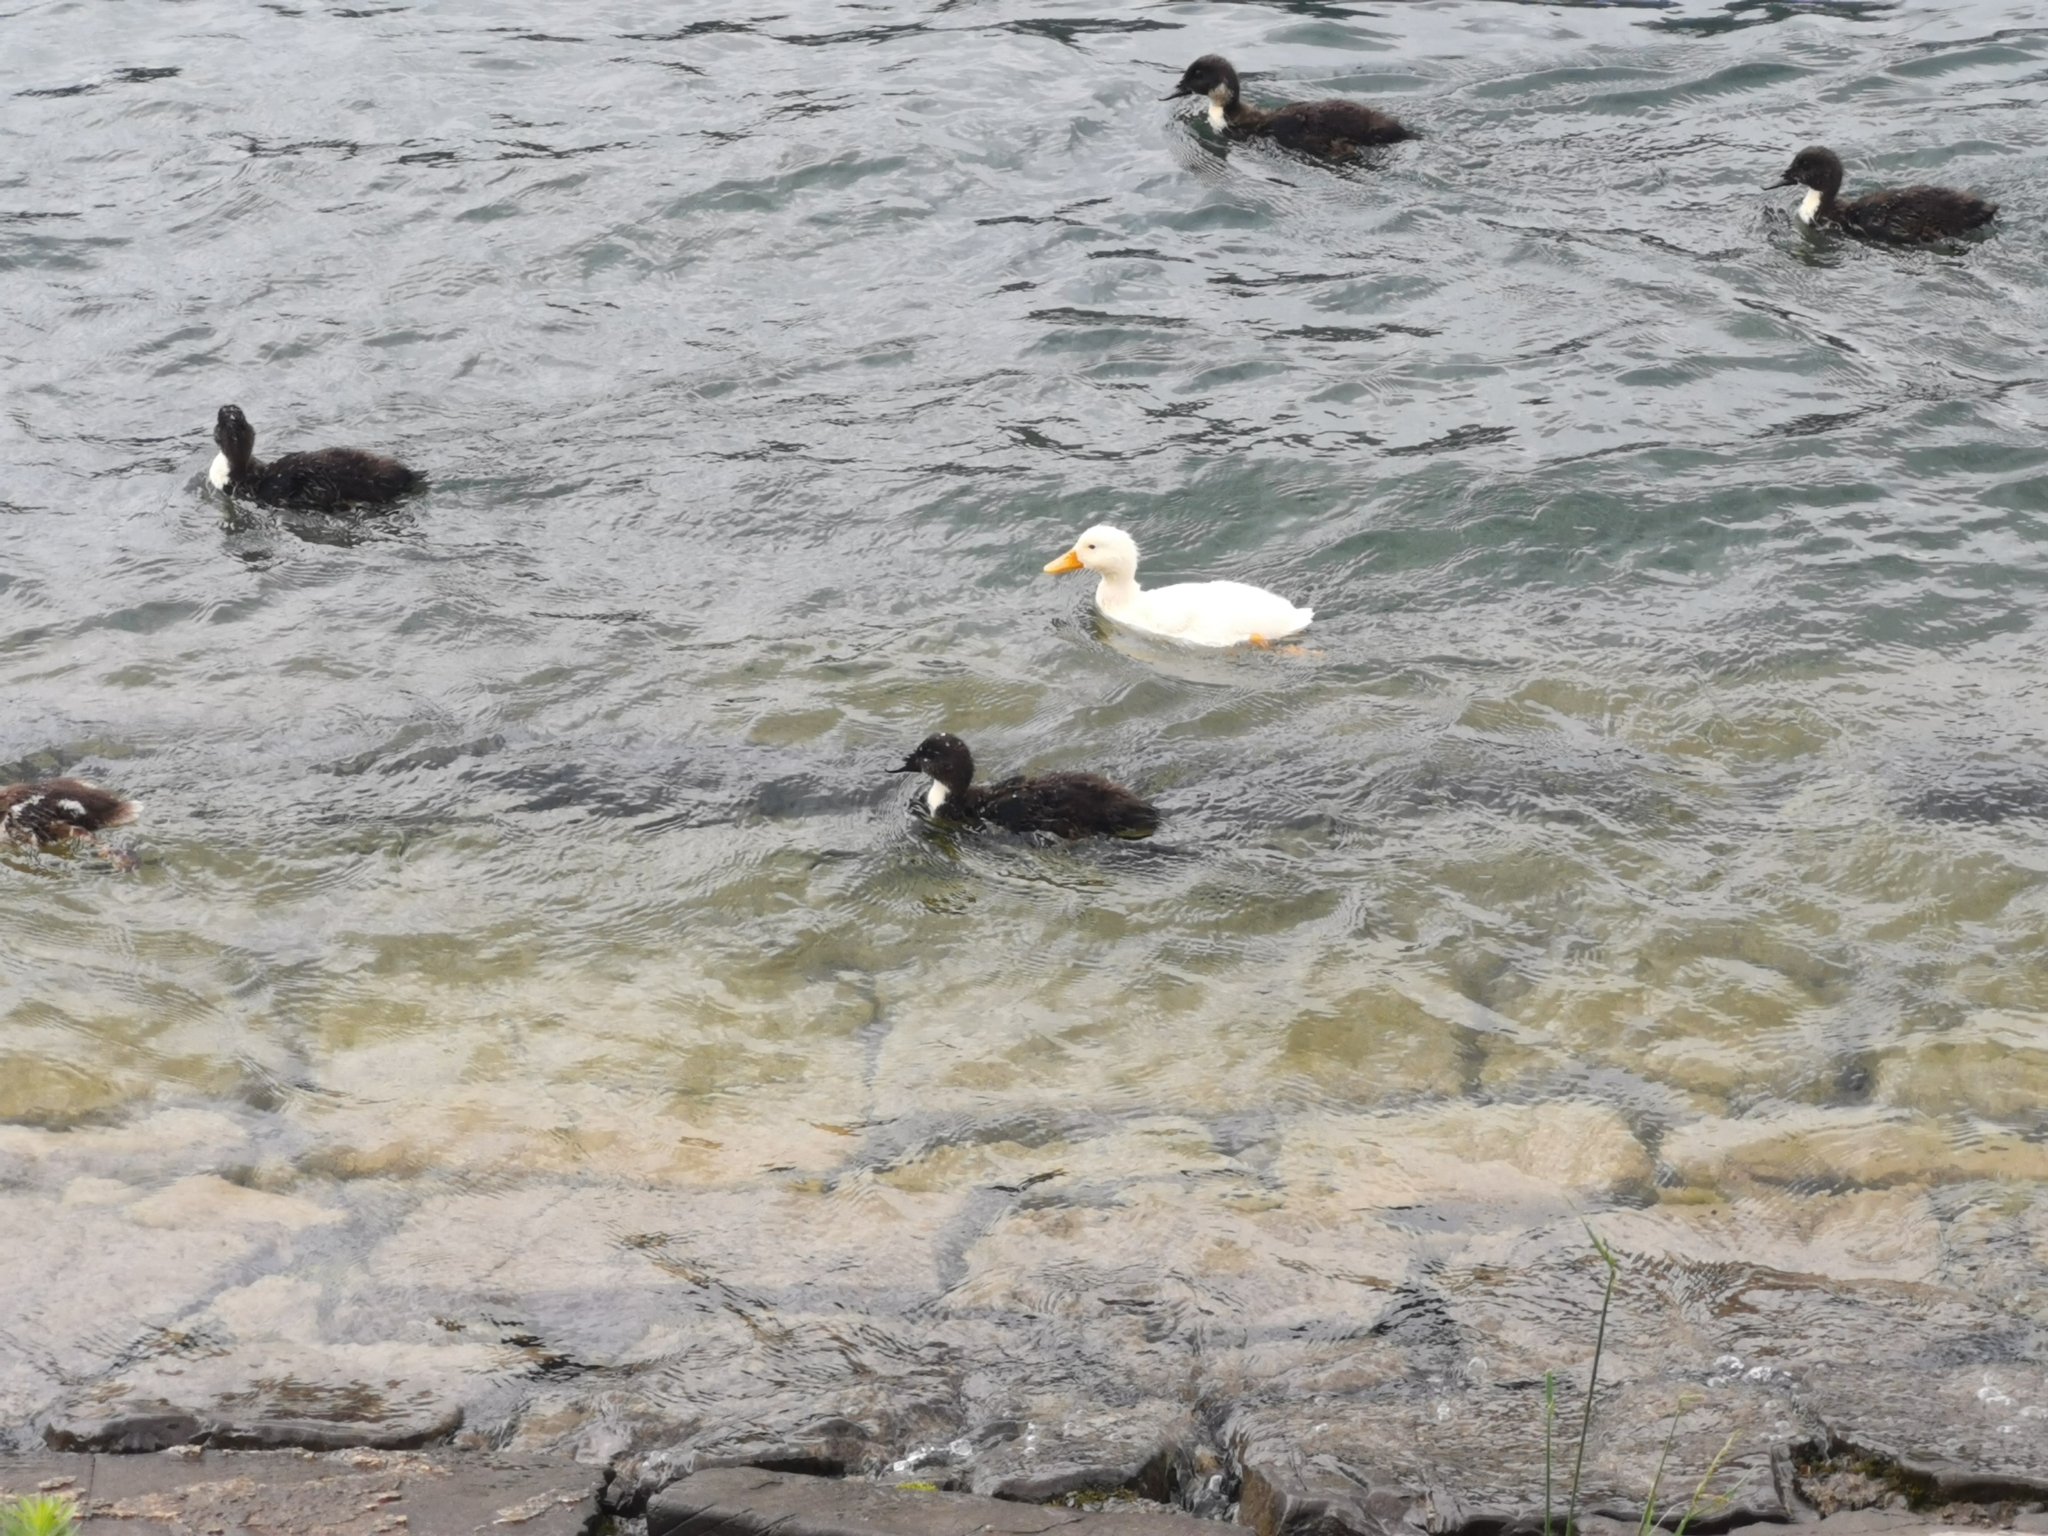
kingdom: Animalia
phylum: Chordata
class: Aves
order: Anseriformes
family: Anatidae
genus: Anas
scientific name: Anas platyrhynchos
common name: Mallard
